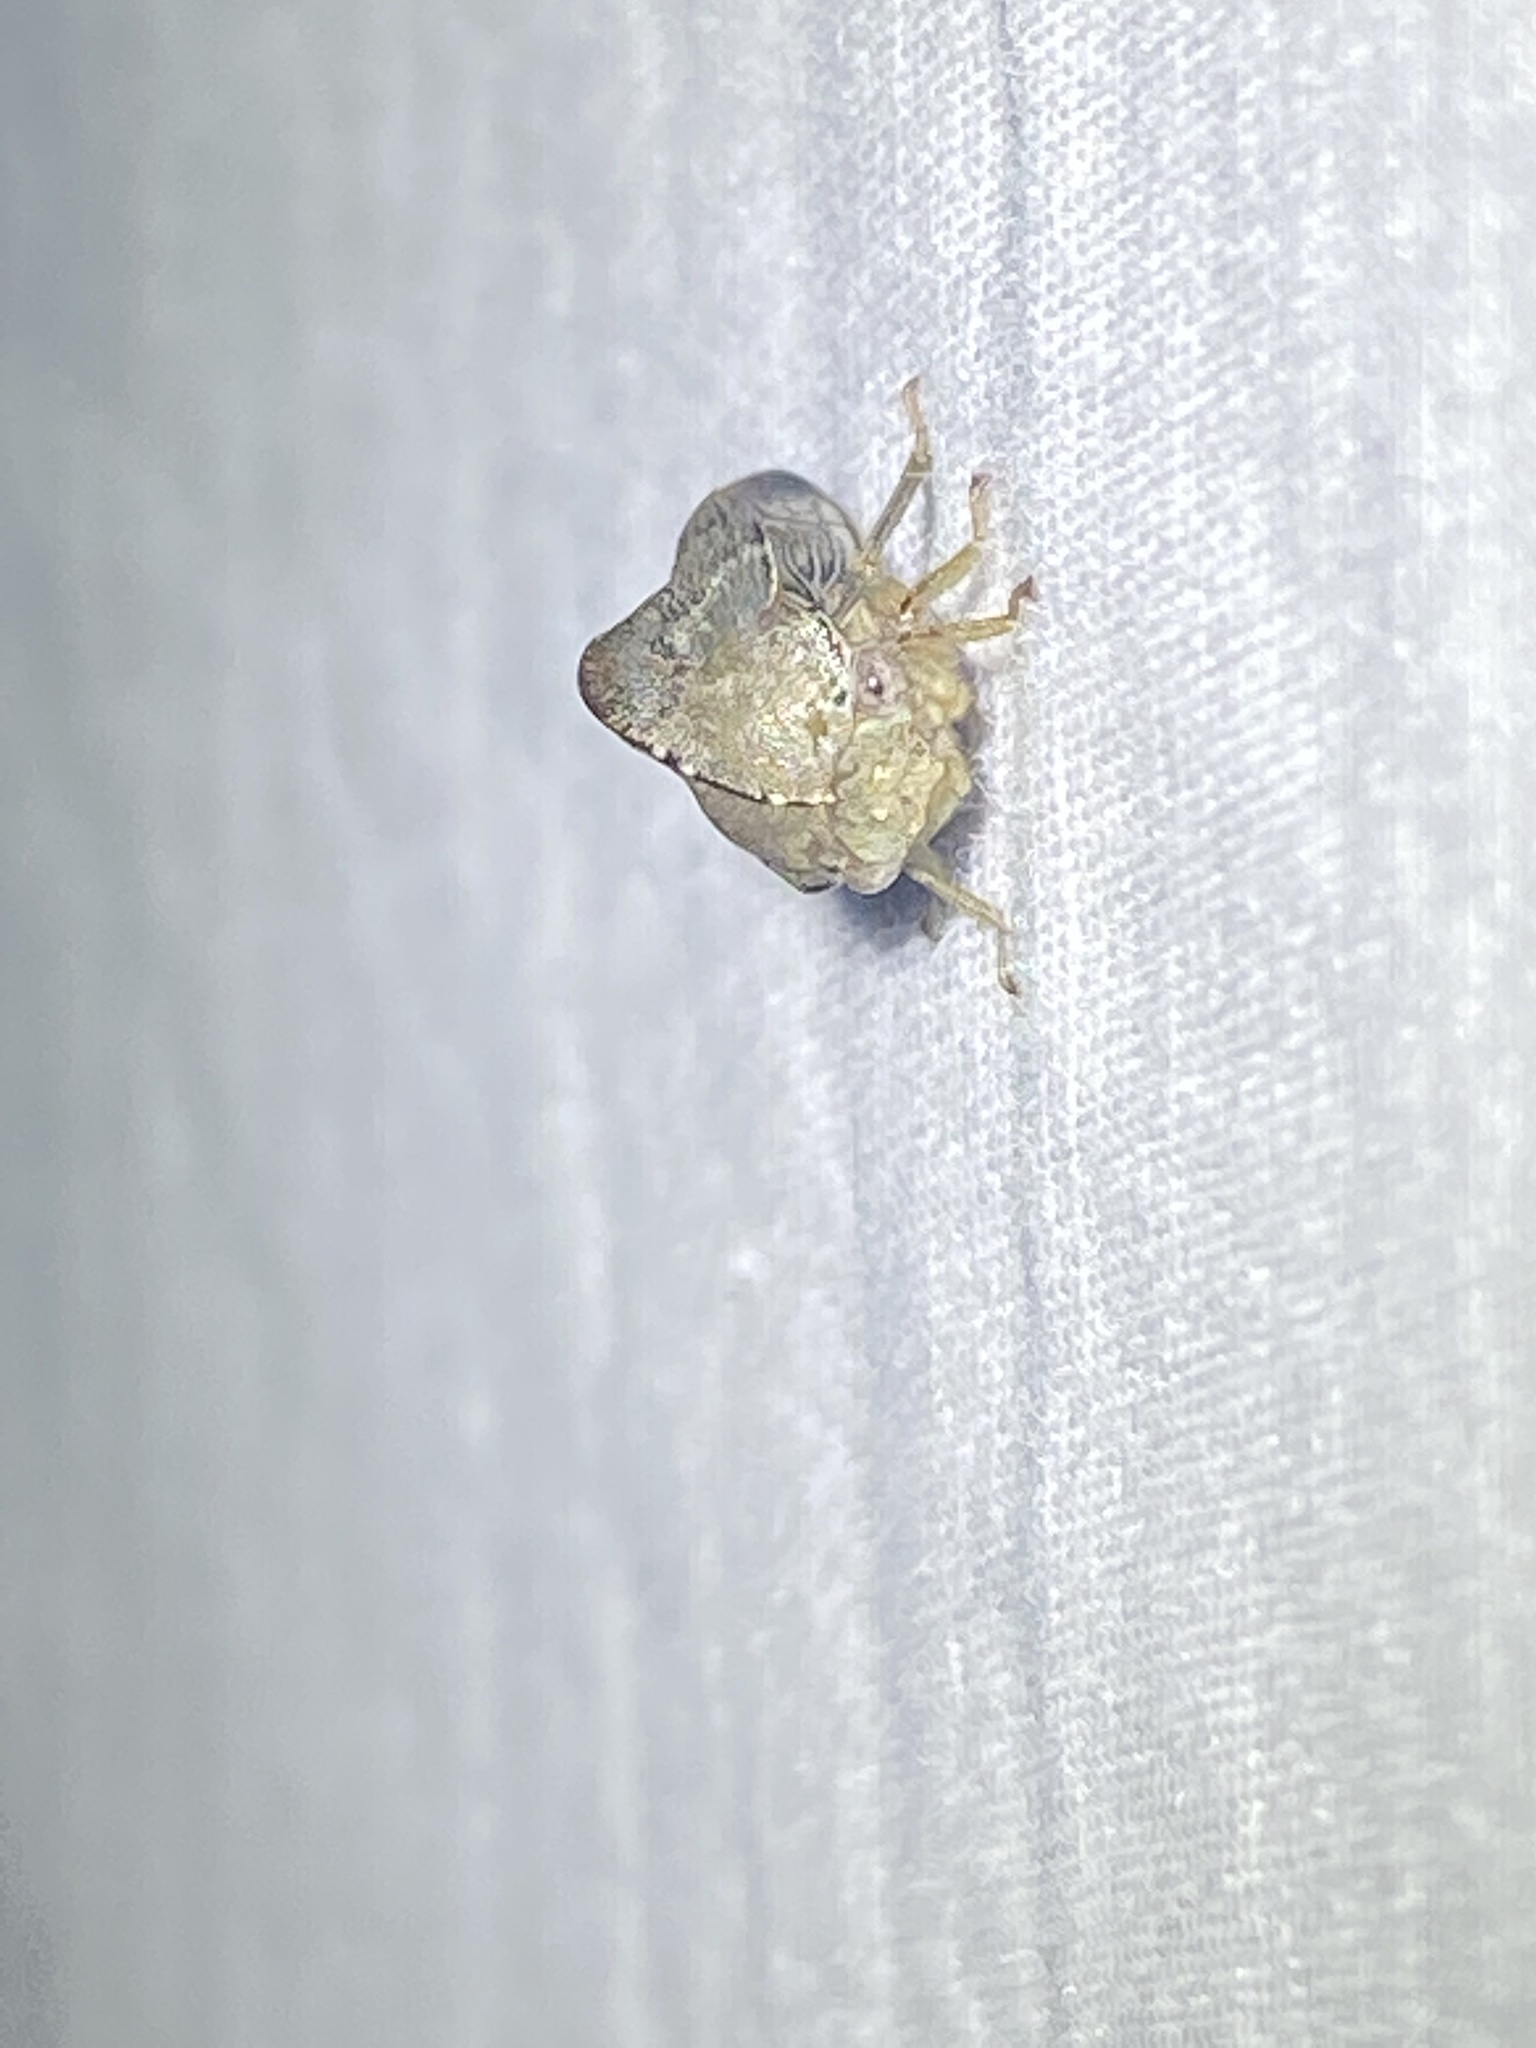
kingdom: Animalia
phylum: Arthropoda
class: Insecta
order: Hemiptera
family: Membracidae
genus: Telamona
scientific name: Telamona reclivata
